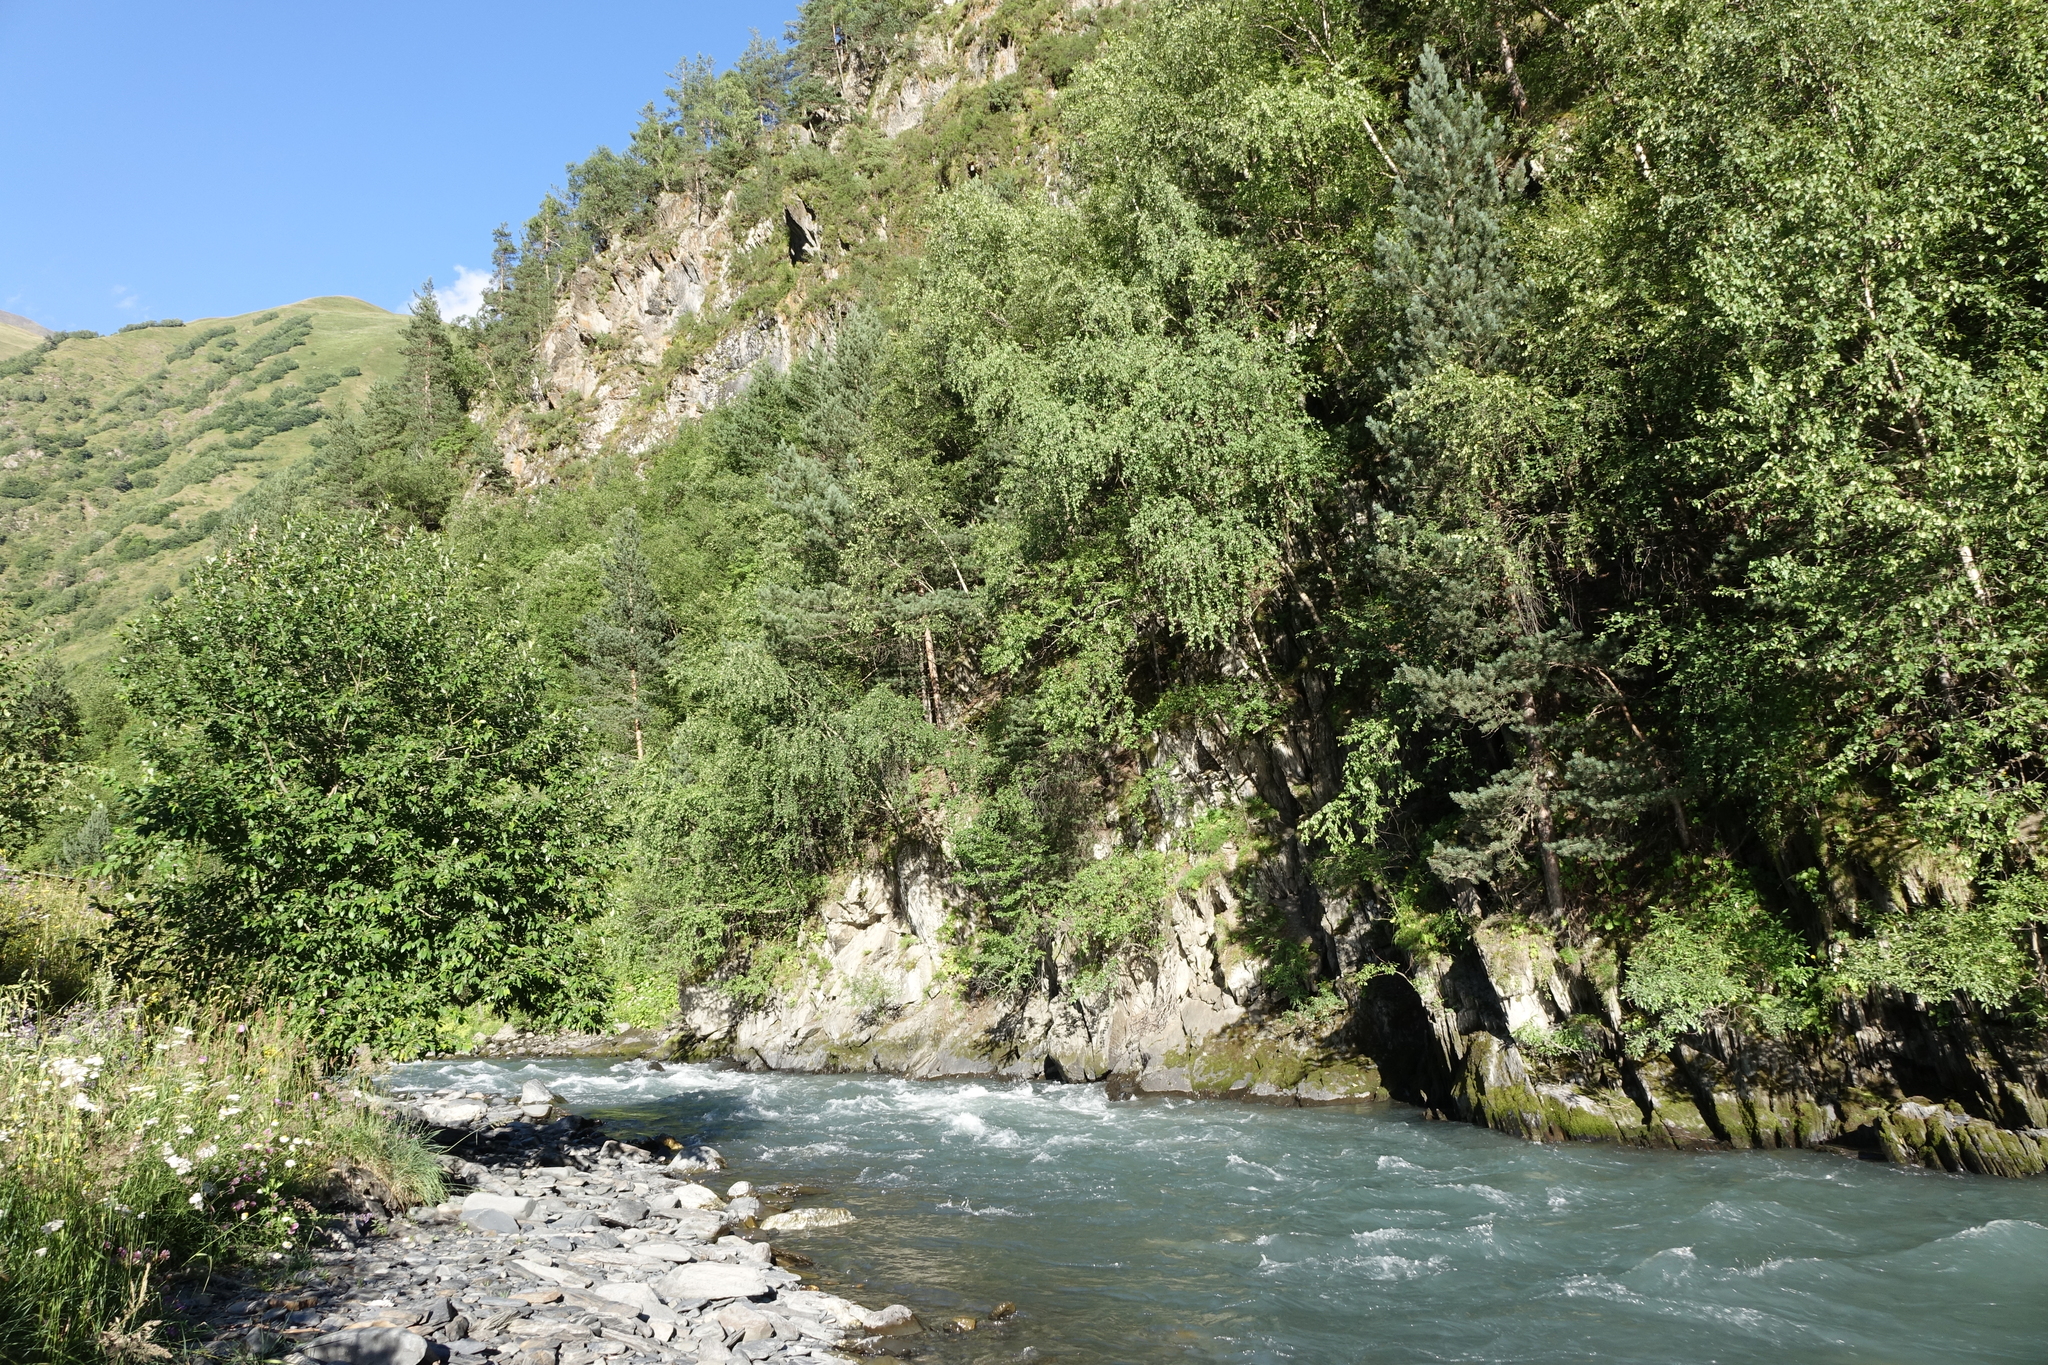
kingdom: Plantae
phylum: Tracheophyta
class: Pinopsida
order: Pinales
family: Pinaceae
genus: Pinus
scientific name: Pinus sylvestris
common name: Scots pine
